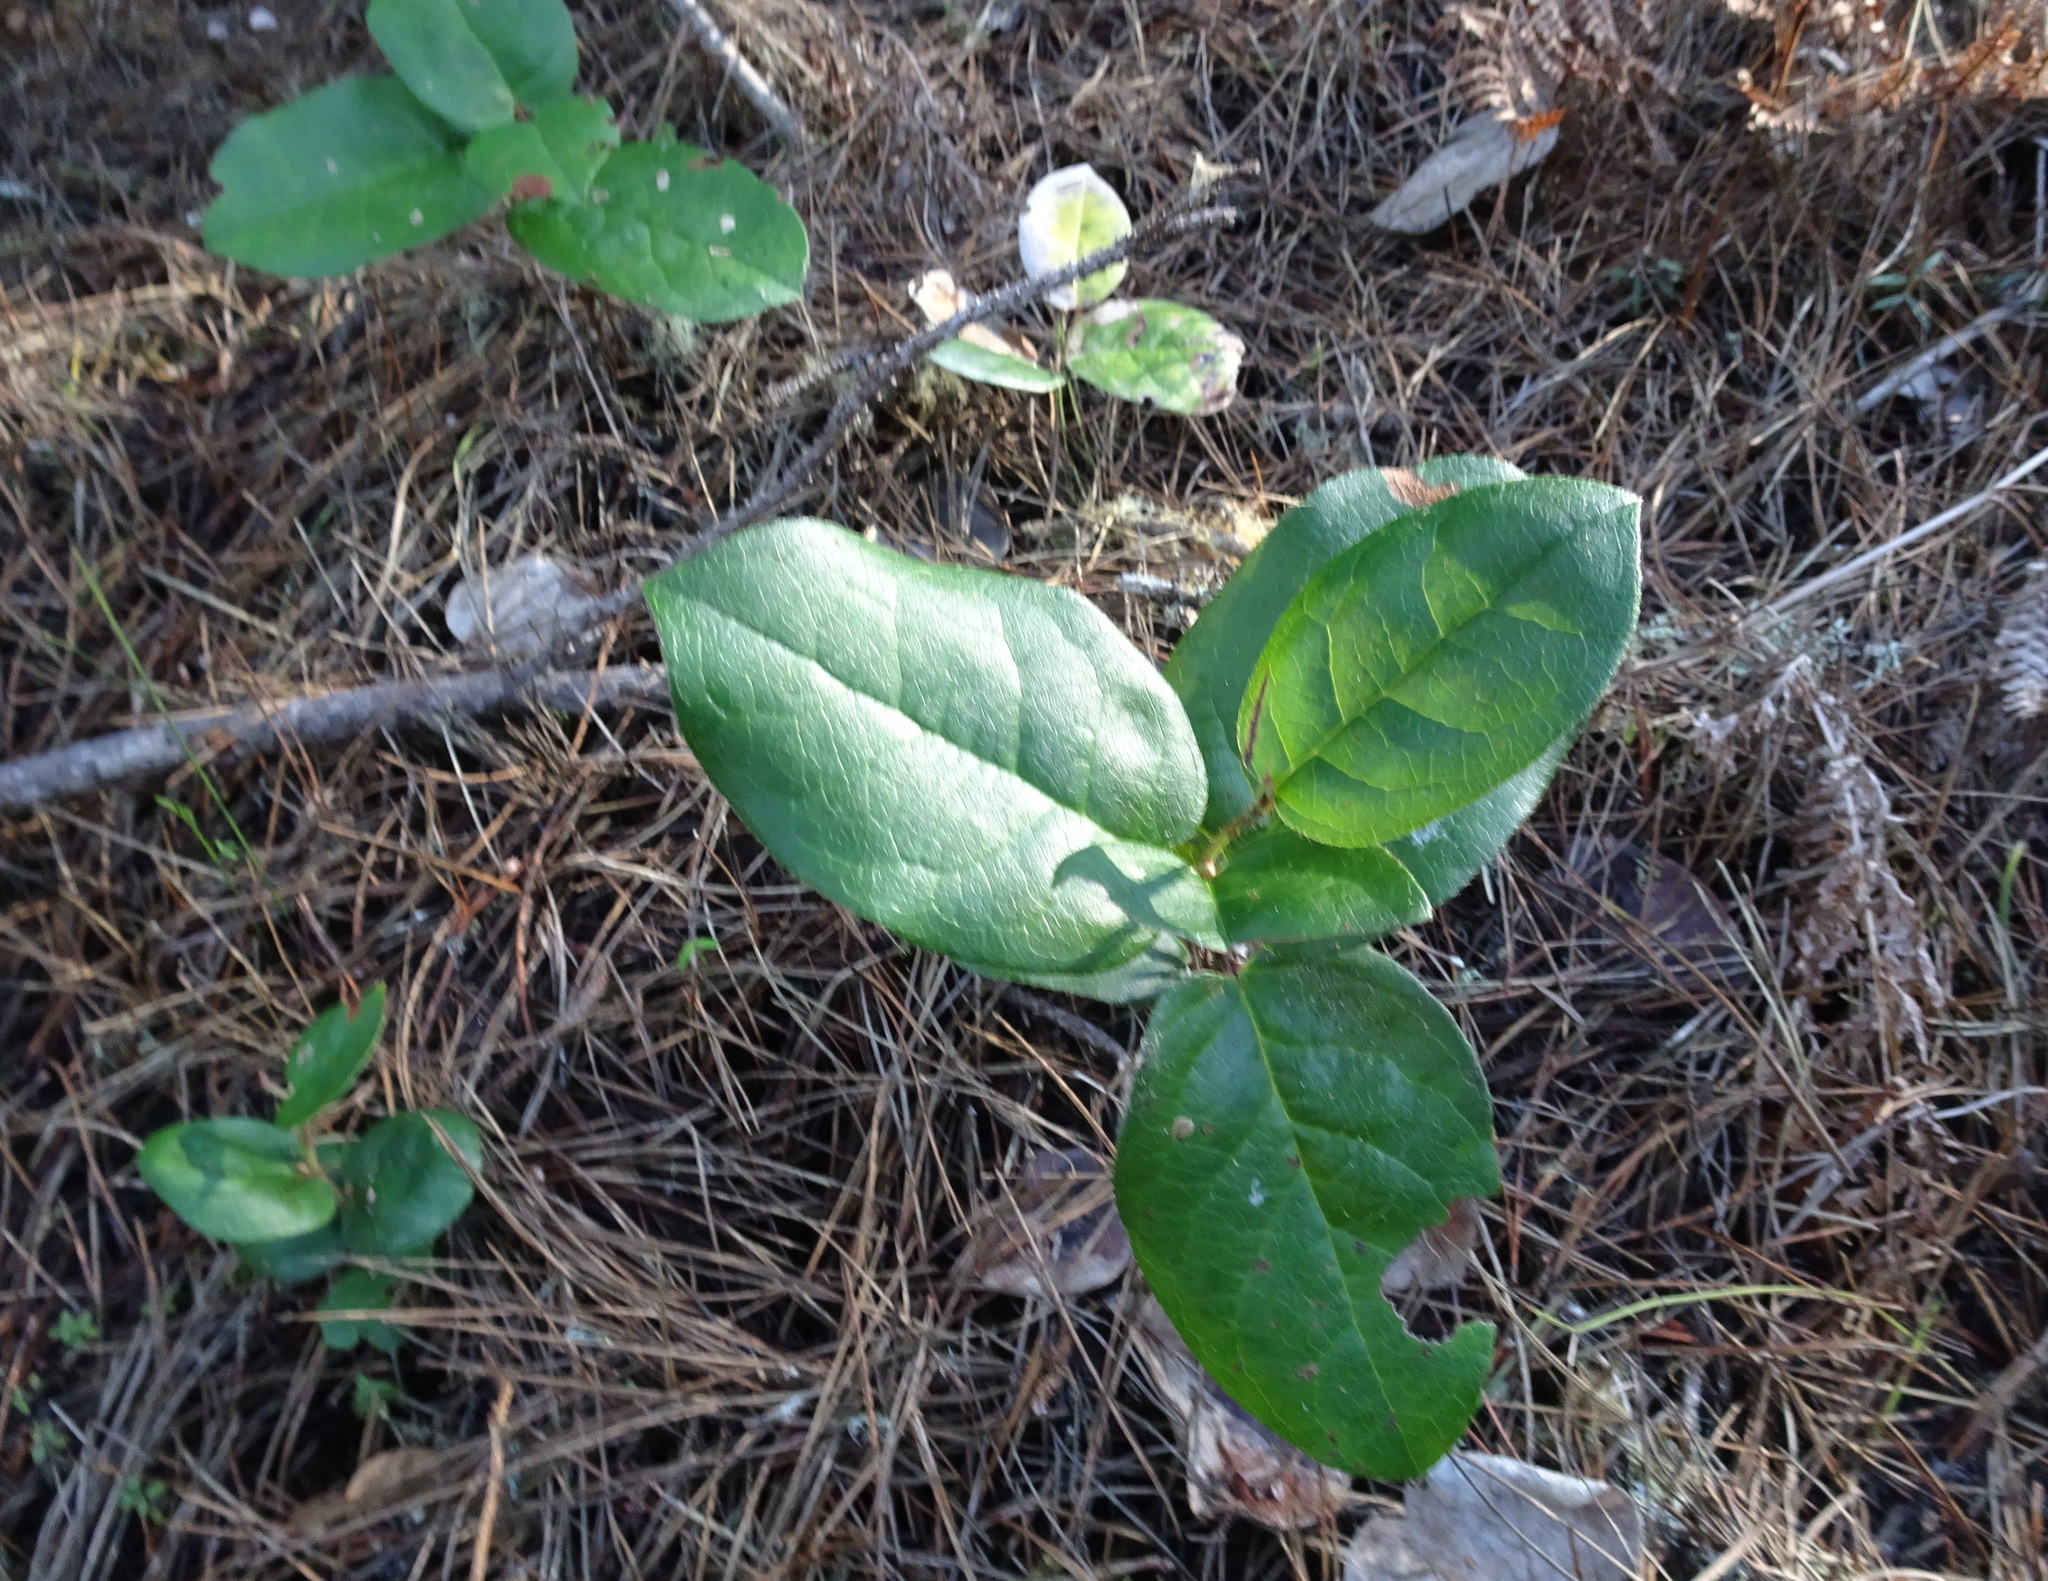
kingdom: Plantae
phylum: Tracheophyta
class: Magnoliopsida
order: Ericales
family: Ericaceae
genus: Gaultheria
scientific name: Gaultheria shallon
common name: Shallon
